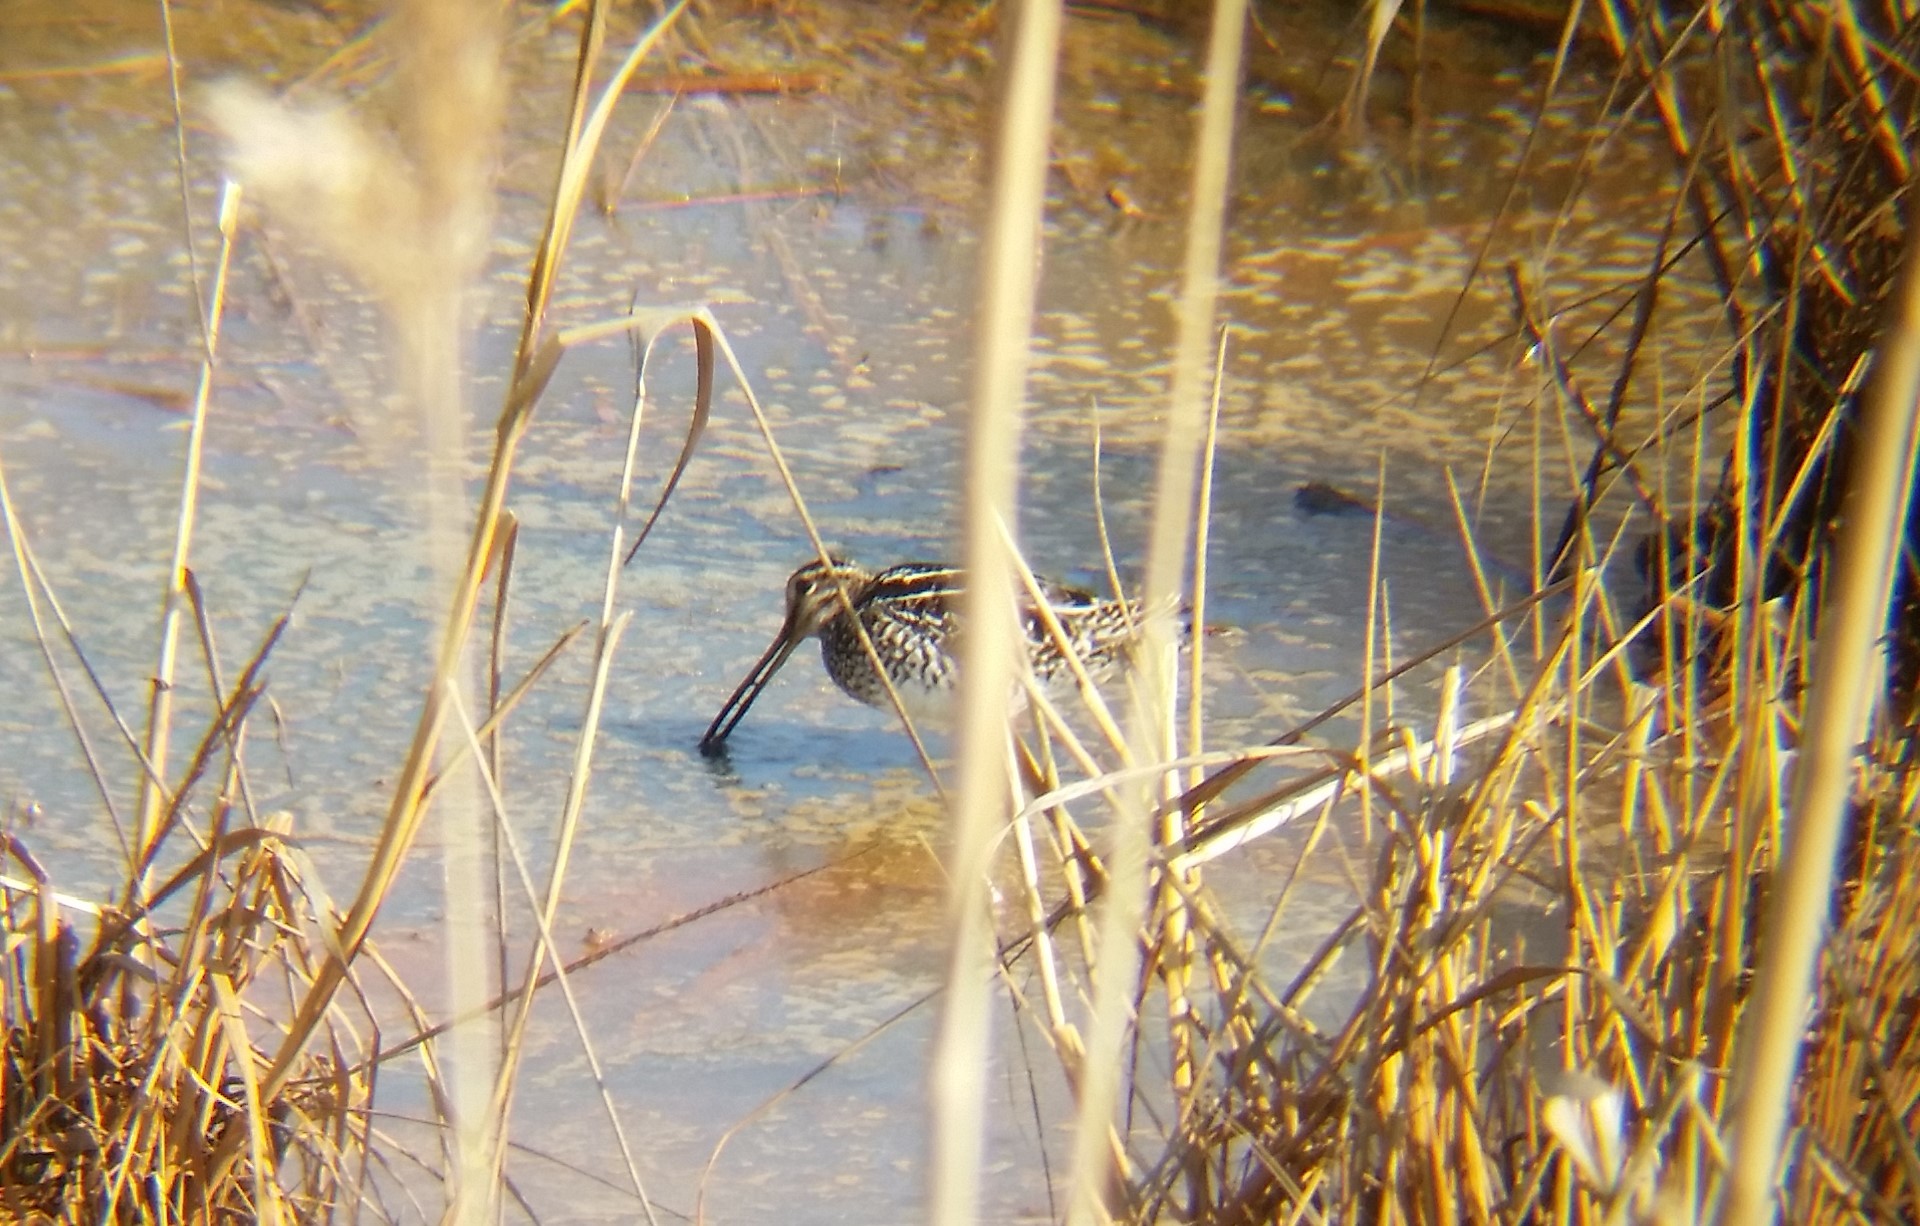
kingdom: Animalia
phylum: Chordata
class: Aves
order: Charadriiformes
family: Scolopacidae
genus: Gallinago
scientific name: Gallinago delicata
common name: Wilson's snipe
